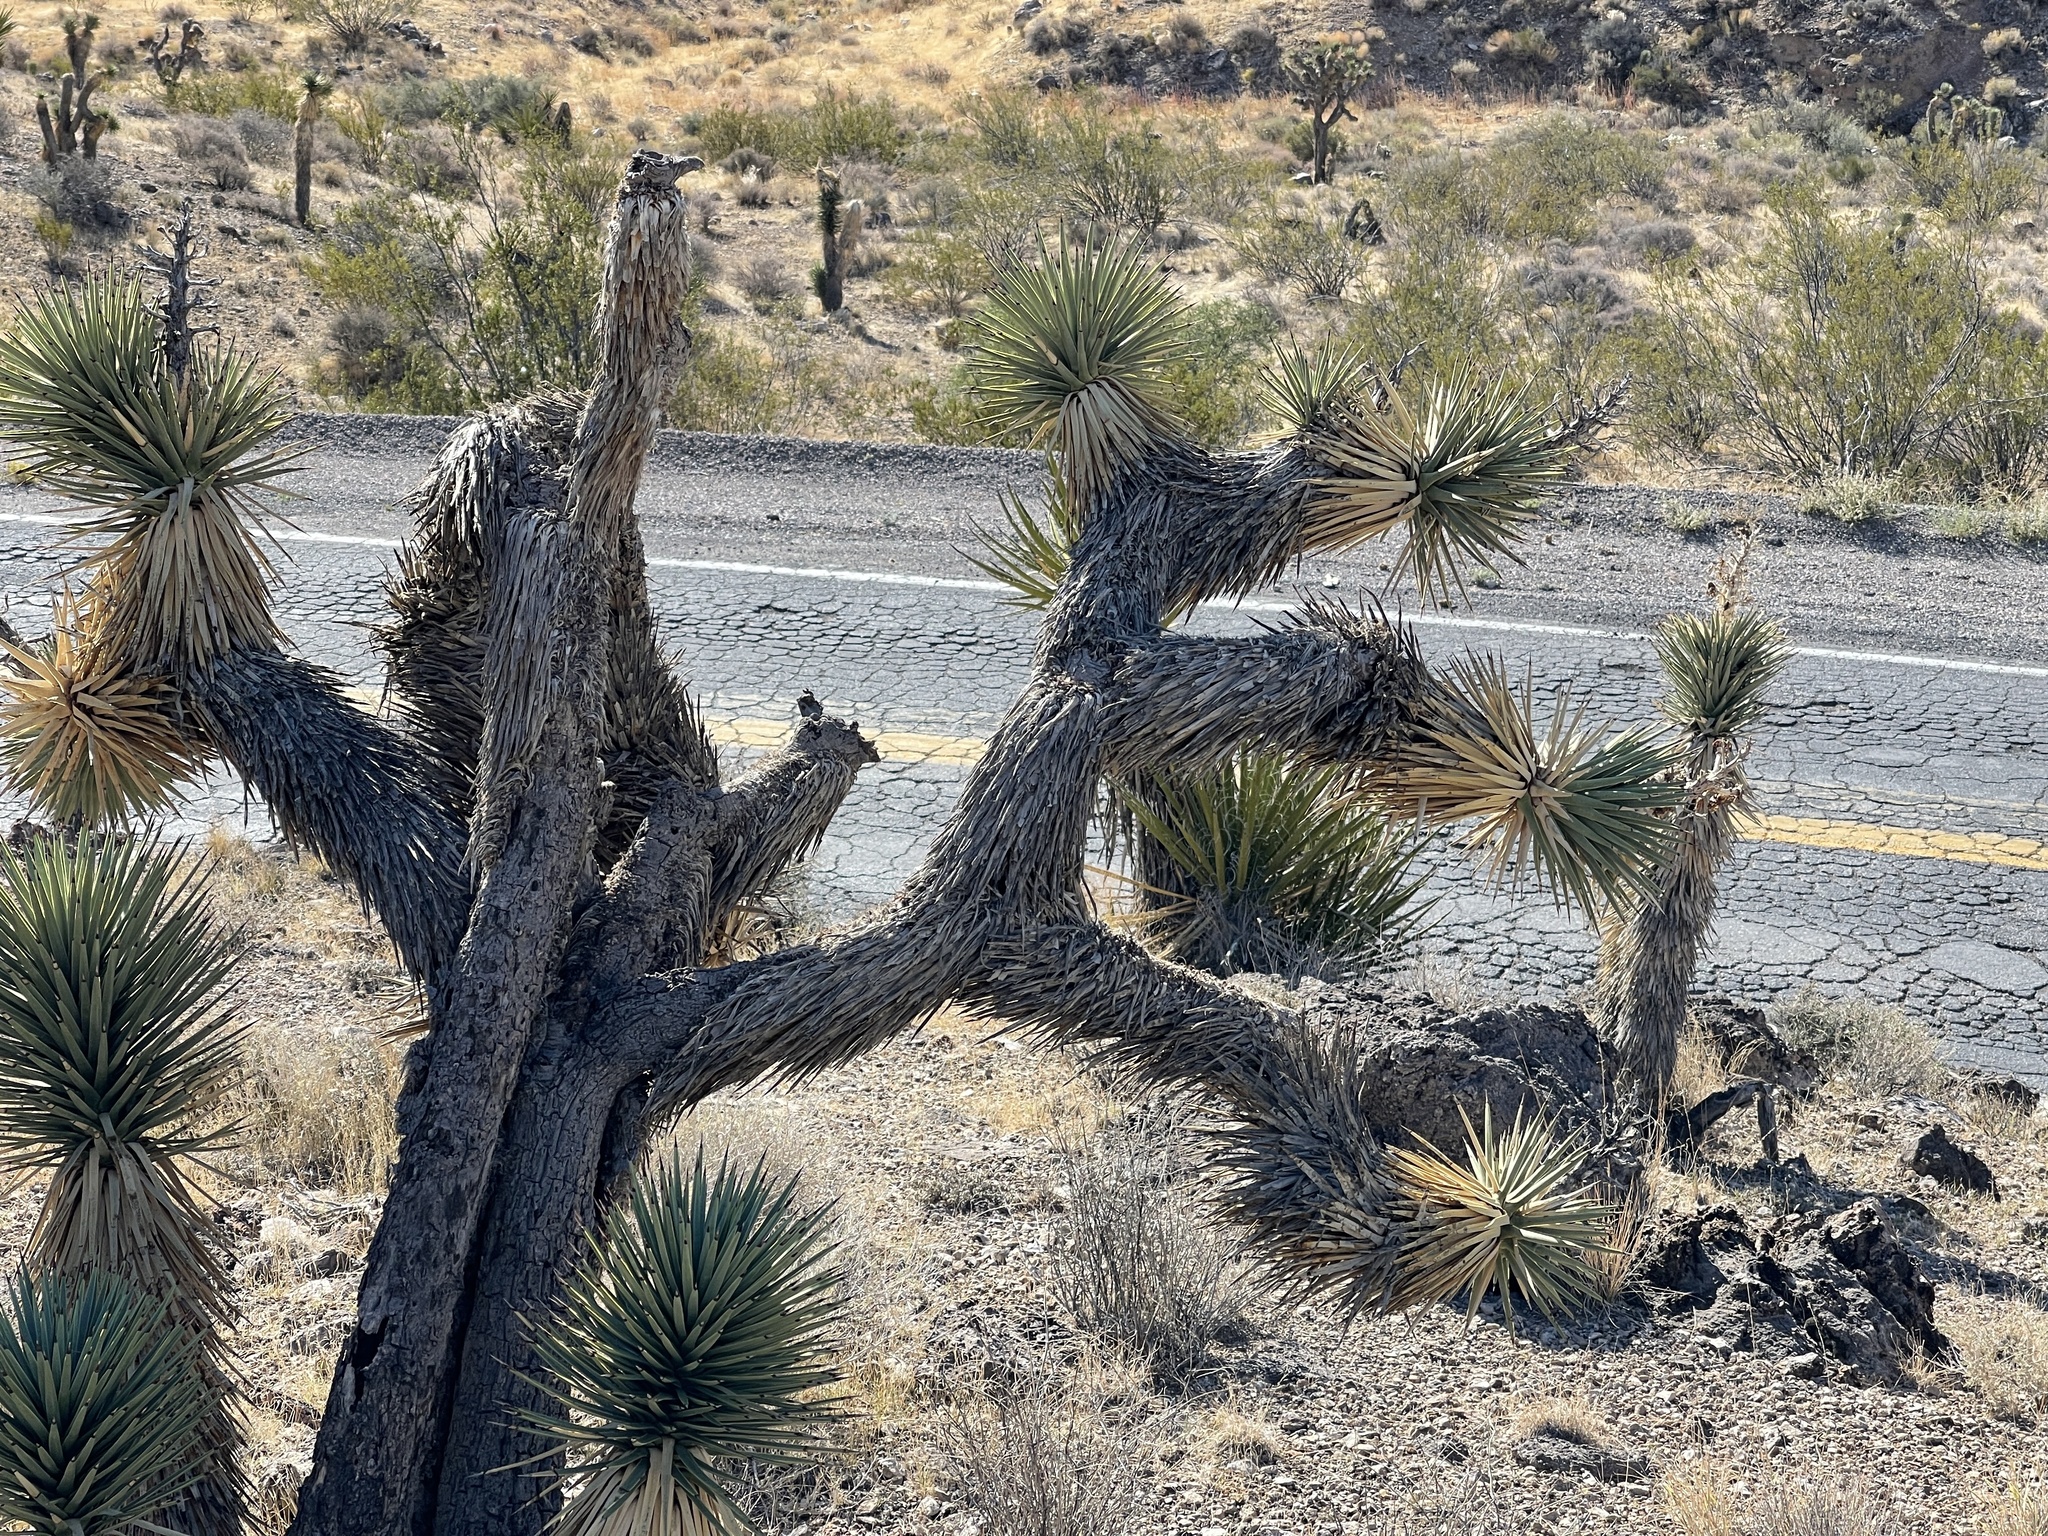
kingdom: Plantae
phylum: Tracheophyta
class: Liliopsida
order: Asparagales
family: Asparagaceae
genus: Yucca
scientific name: Yucca brevifolia
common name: Joshua tree
